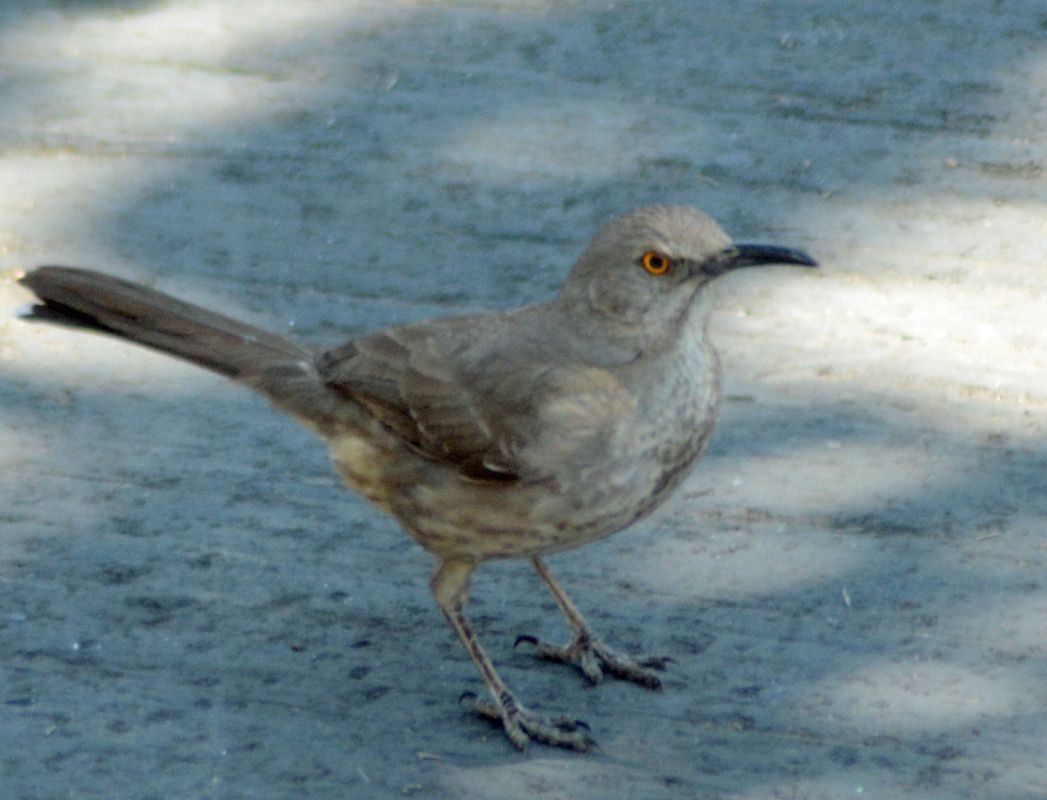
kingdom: Animalia
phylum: Chordata
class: Aves
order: Passeriformes
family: Mimidae
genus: Toxostoma
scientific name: Toxostoma curvirostre
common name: Curve-billed thrasher
